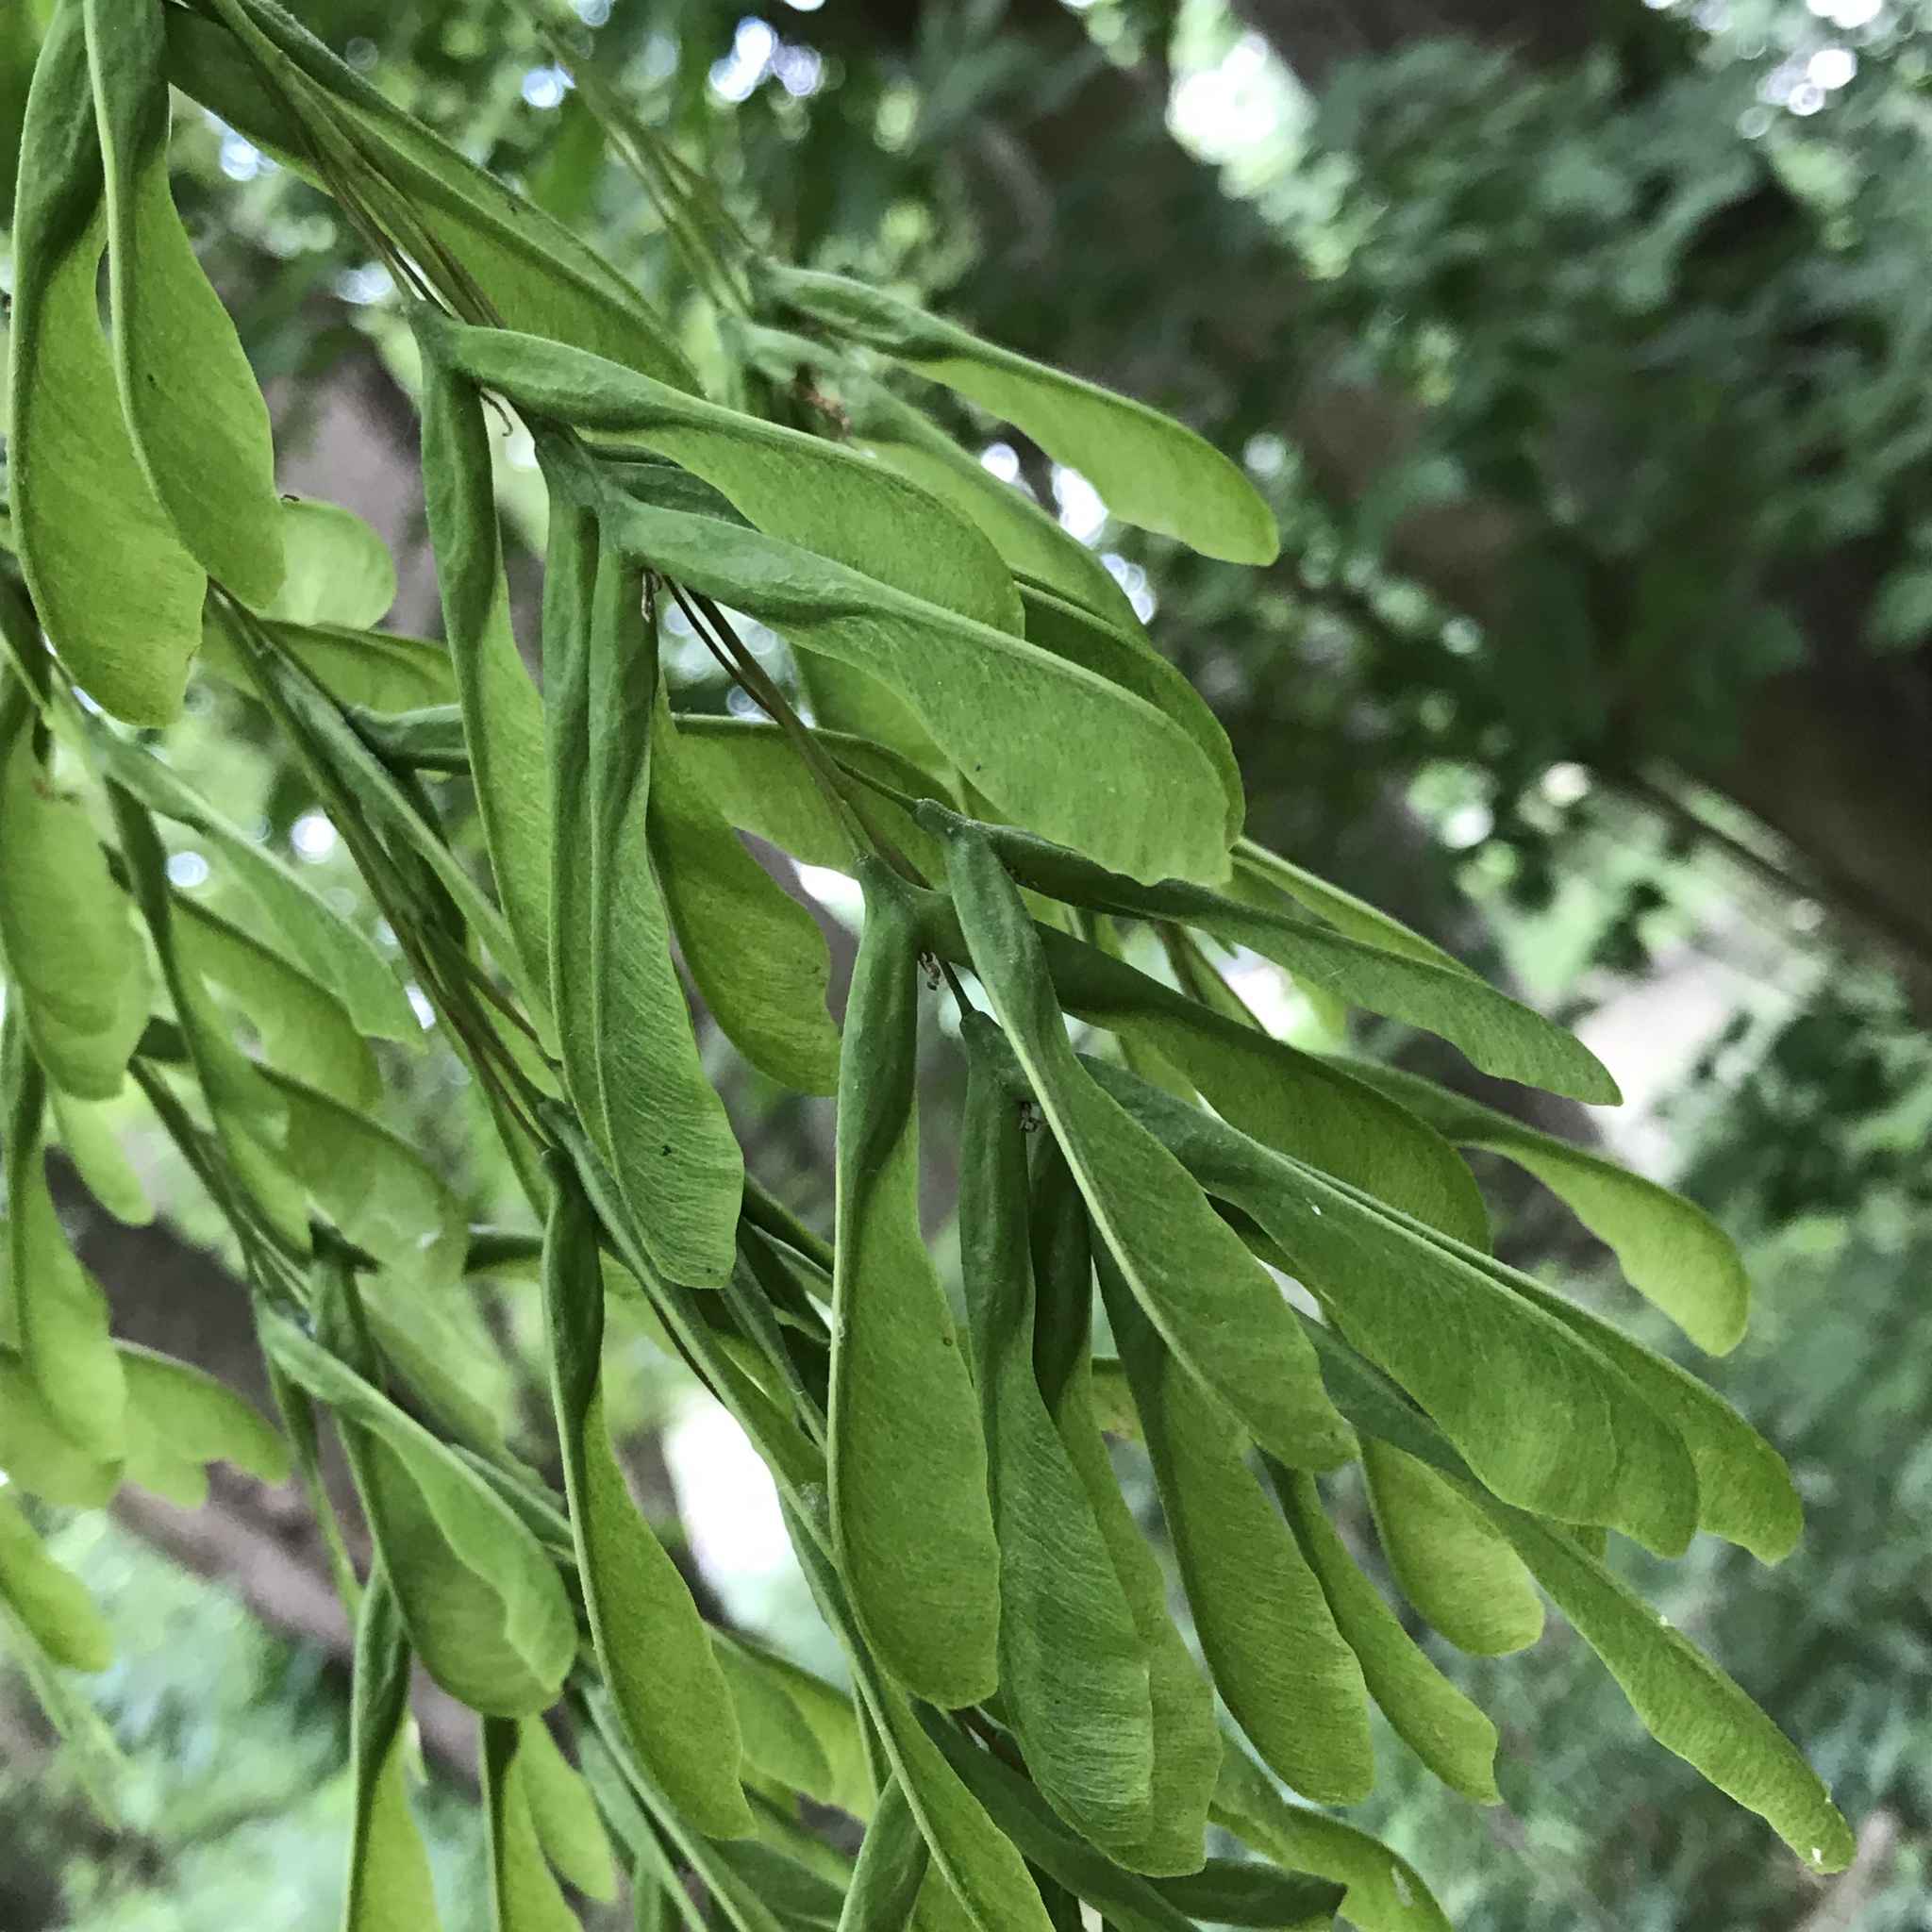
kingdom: Plantae
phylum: Tracheophyta
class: Magnoliopsida
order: Sapindales
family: Sapindaceae
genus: Acer
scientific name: Acer negundo
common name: Ashleaf maple
